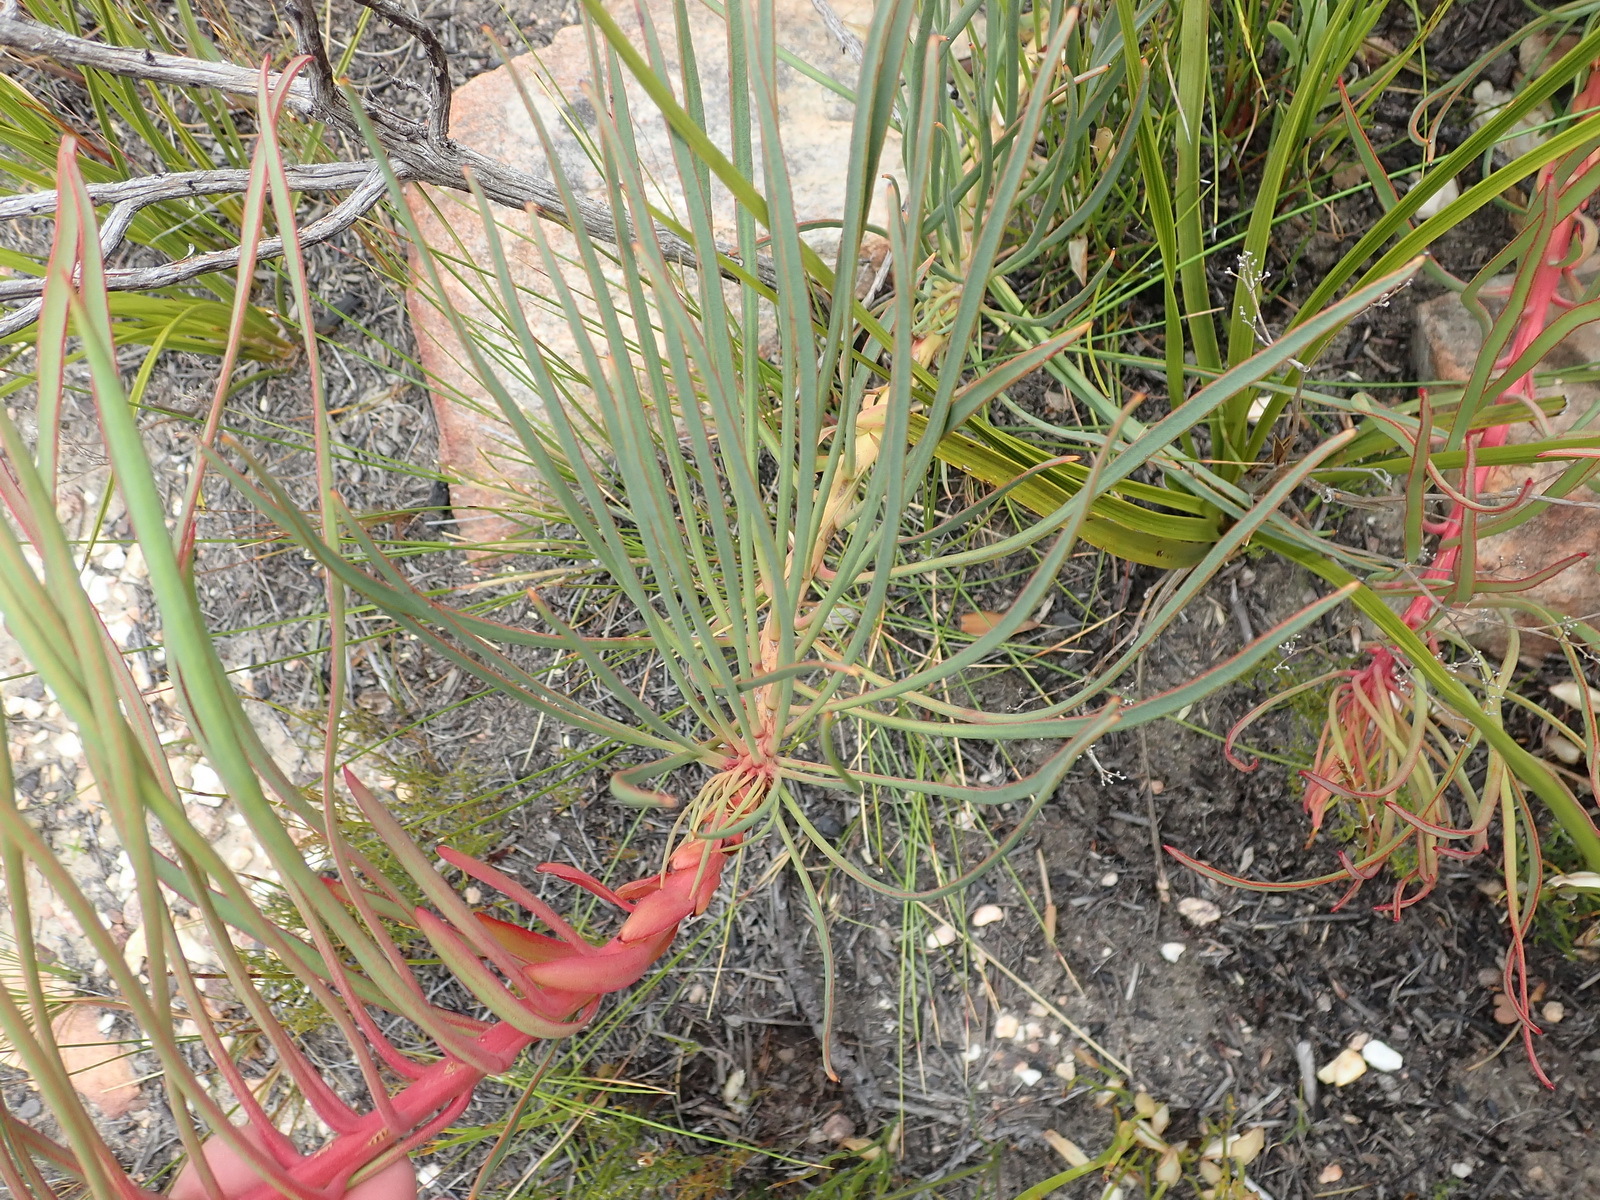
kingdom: Plantae
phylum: Tracheophyta
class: Magnoliopsida
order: Proteales
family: Proteaceae
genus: Protea
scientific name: Protea montana
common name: Swartberg sugarbush
